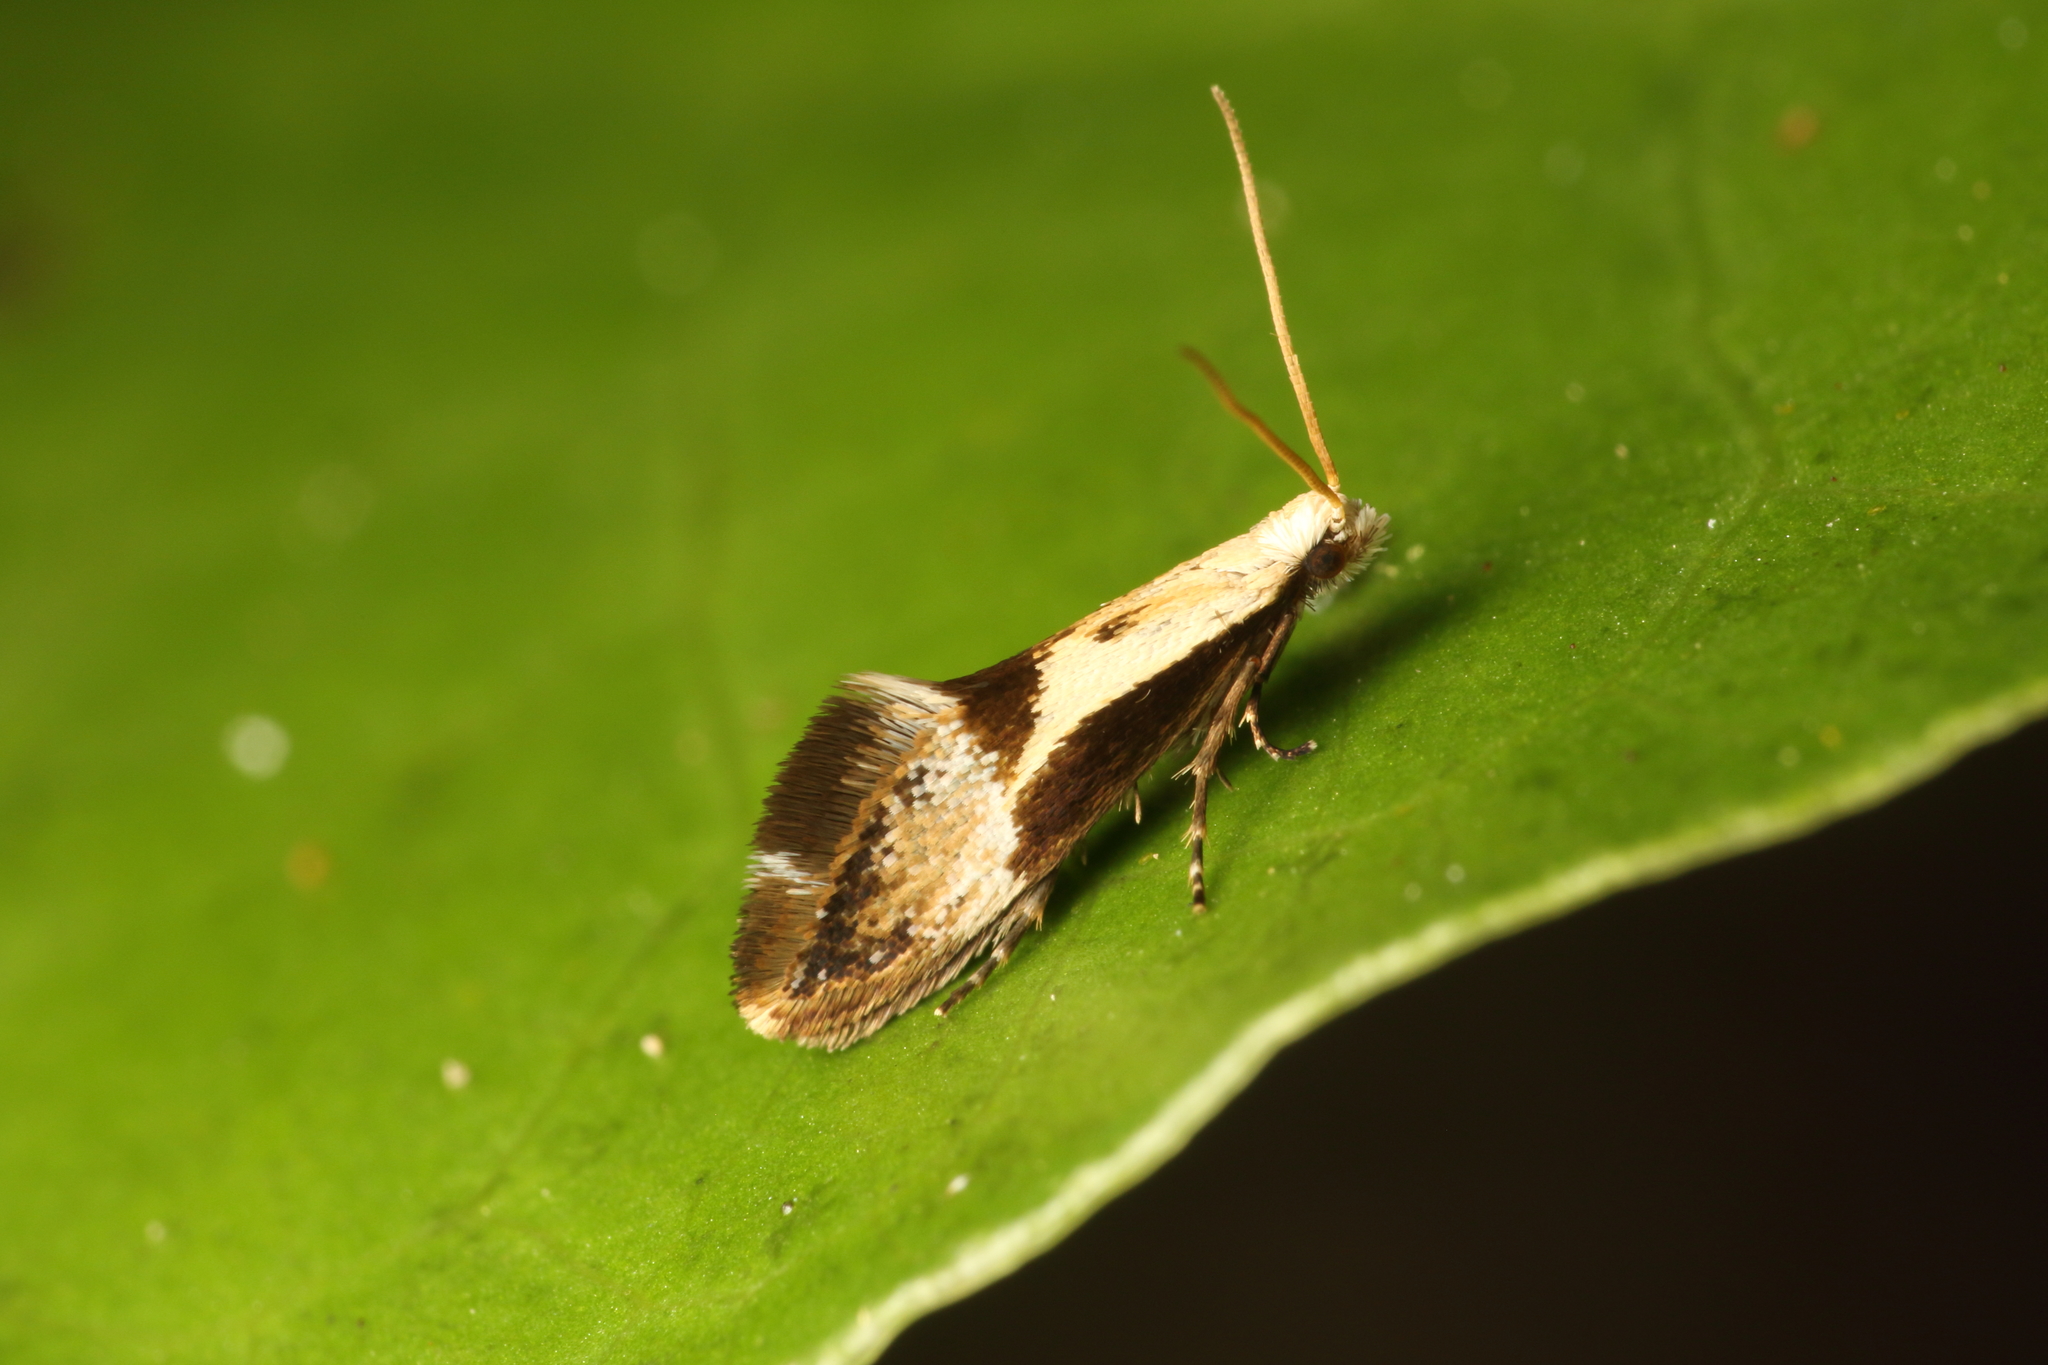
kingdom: Animalia
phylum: Arthropoda
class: Insecta
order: Lepidoptera
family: Mnesarchaeidae
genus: Mnesarchella
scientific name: Mnesarchella fusilella
